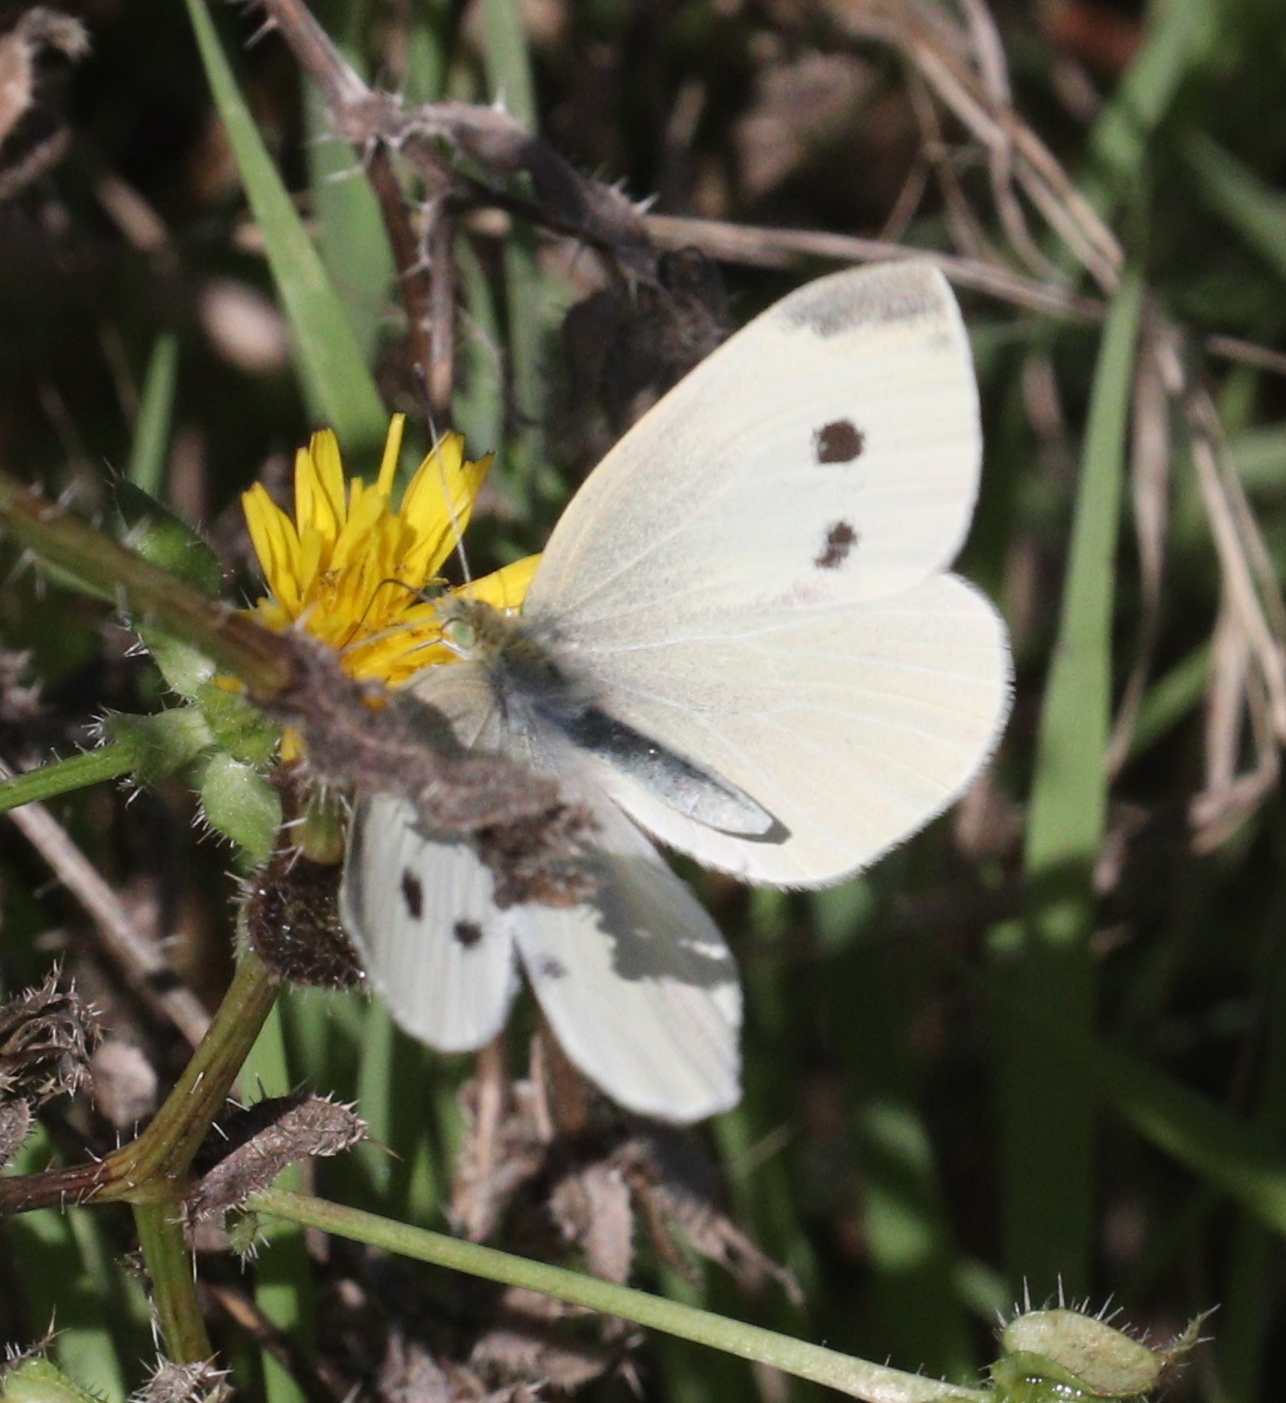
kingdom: Animalia
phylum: Arthropoda
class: Insecta
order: Lepidoptera
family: Pieridae
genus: Pieris
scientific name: Pieris rapae
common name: Small white
